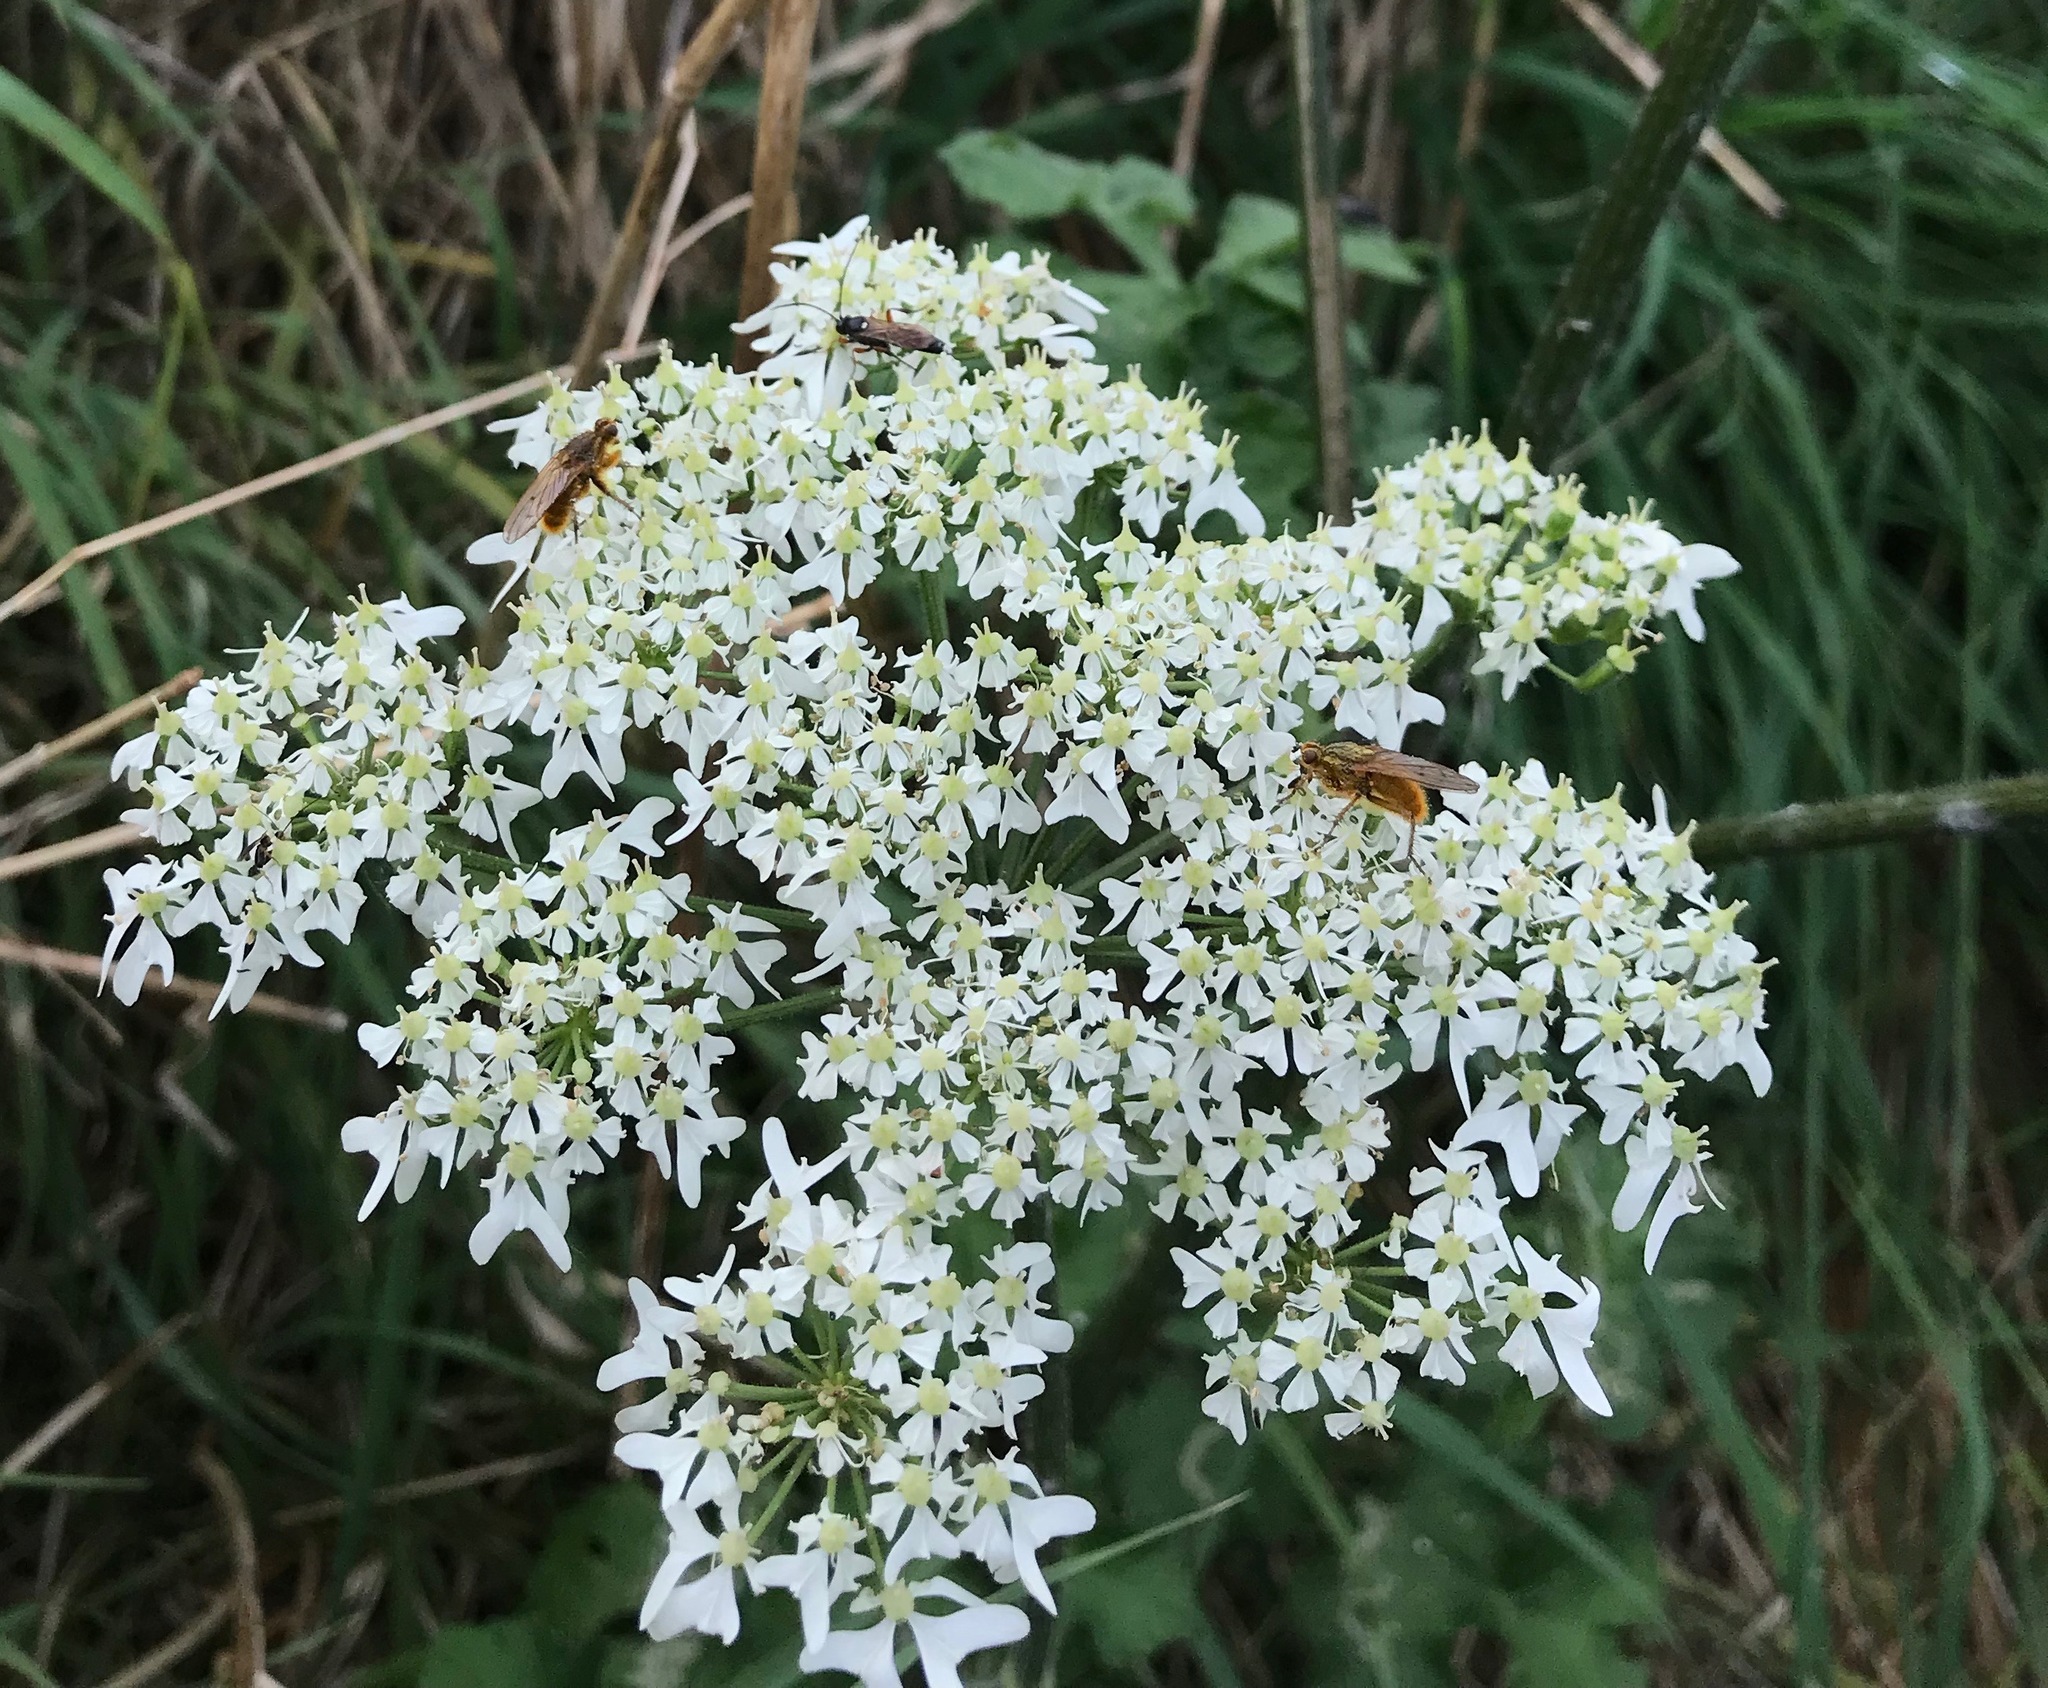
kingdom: Plantae
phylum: Tracheophyta
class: Magnoliopsida
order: Apiales
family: Apiaceae
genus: Heracleum
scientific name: Heracleum sphondylium
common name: Hogweed
